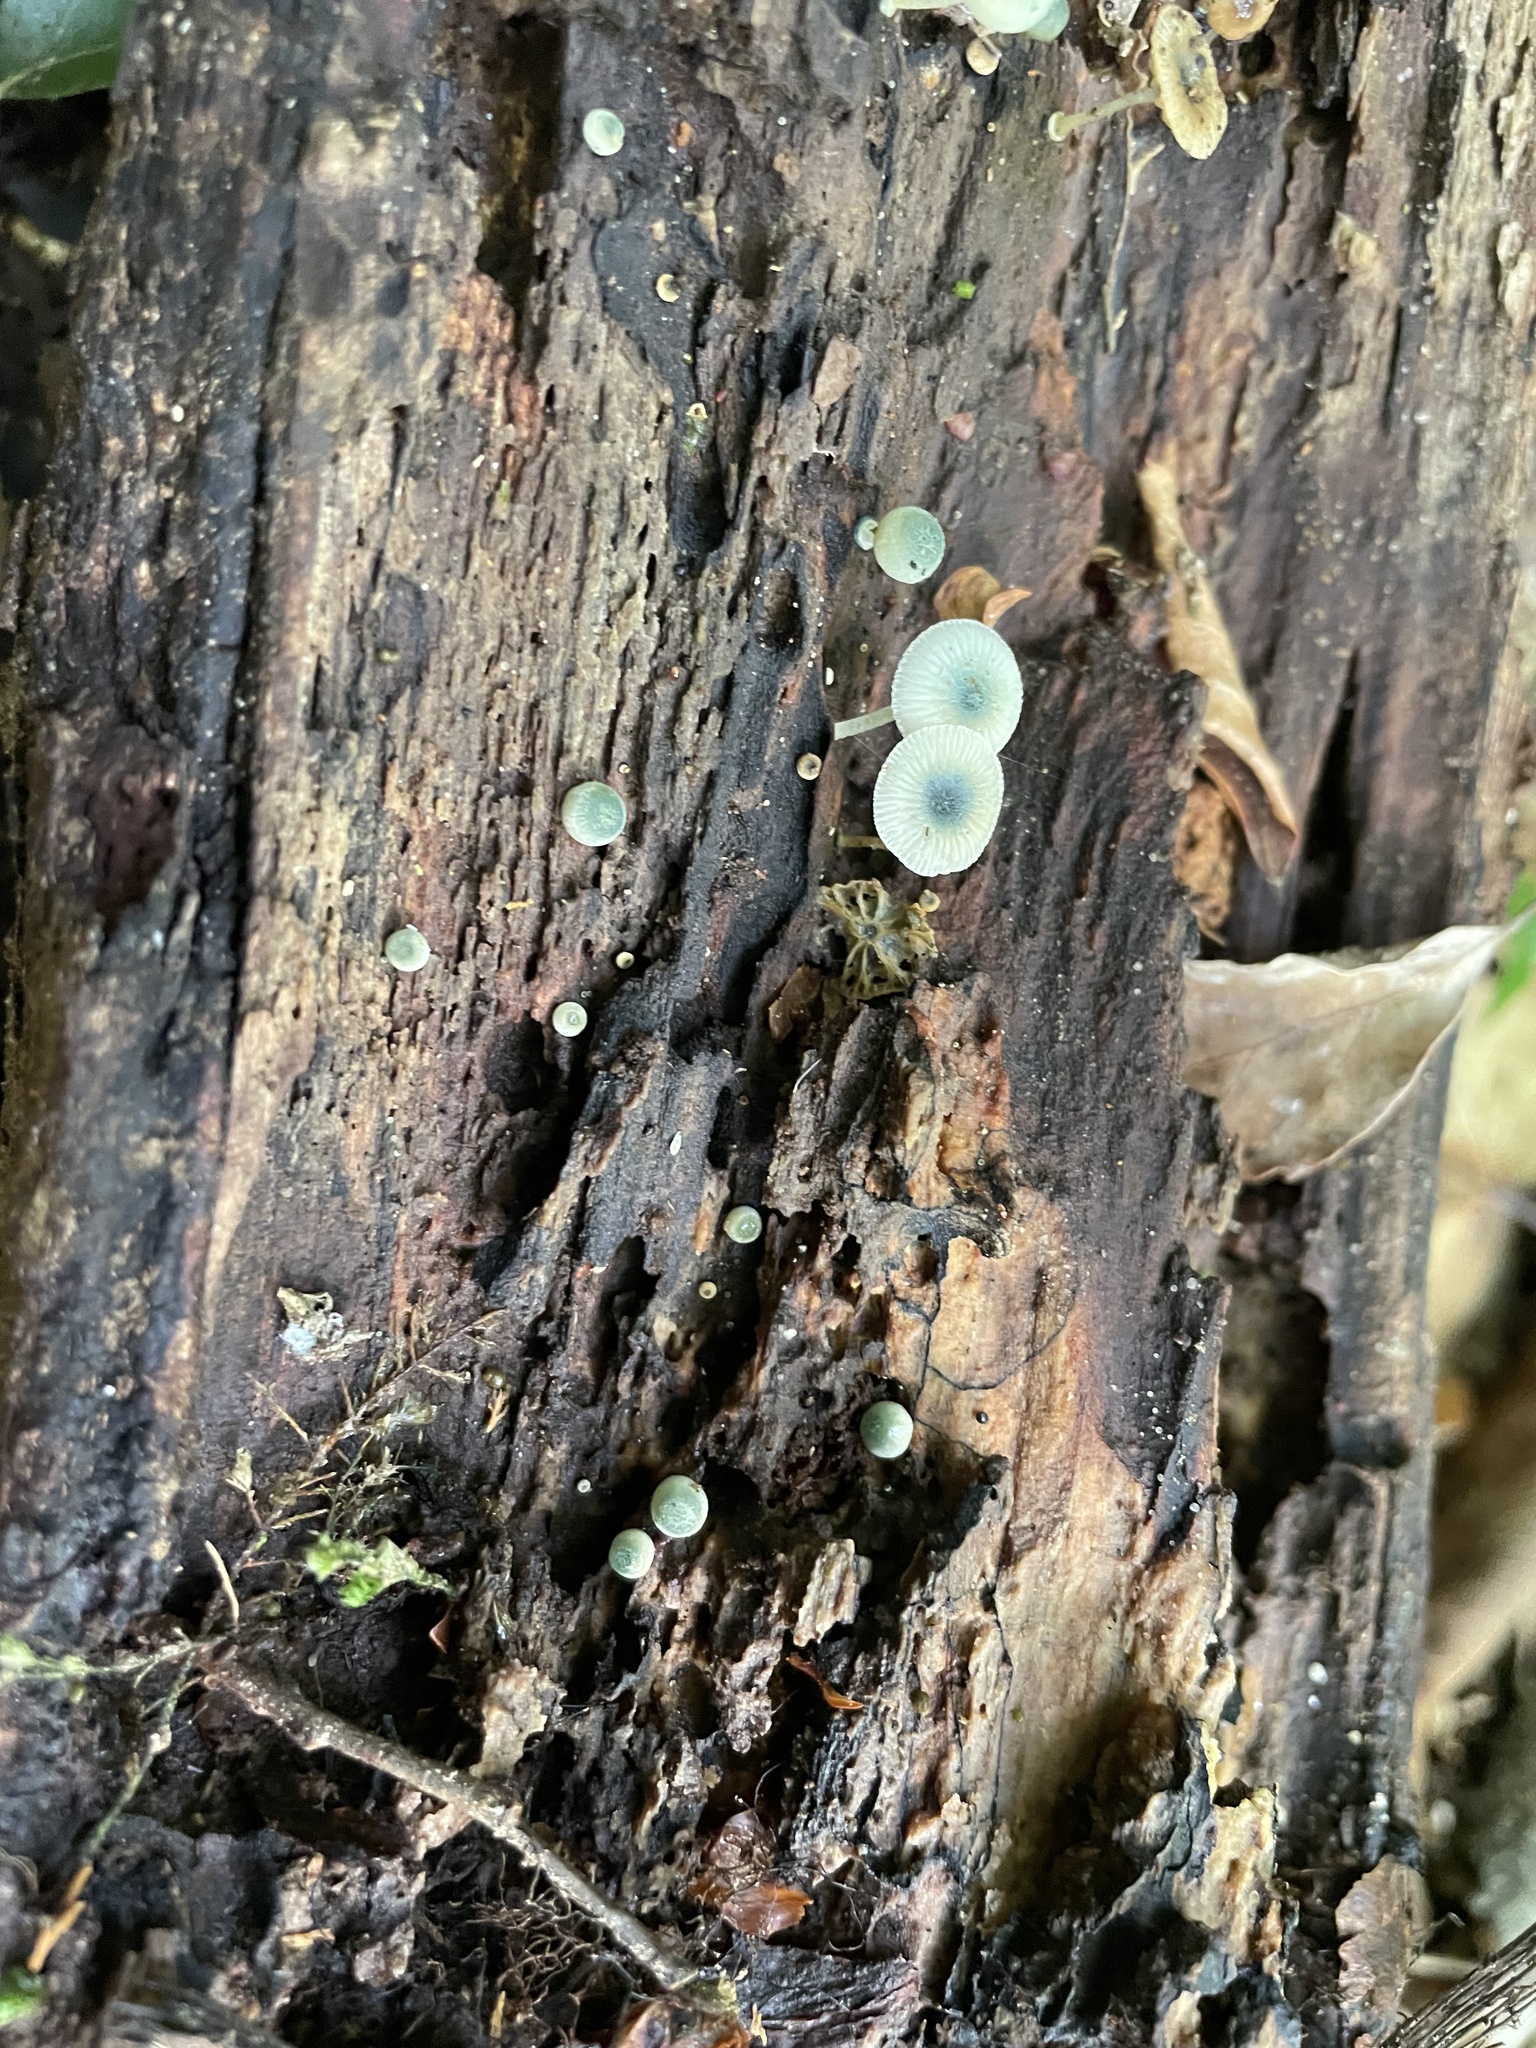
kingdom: Fungi
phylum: Basidiomycota
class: Agaricomycetes
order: Agaricales
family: Mycenaceae
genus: Mycena
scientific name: Mycena interrupta
